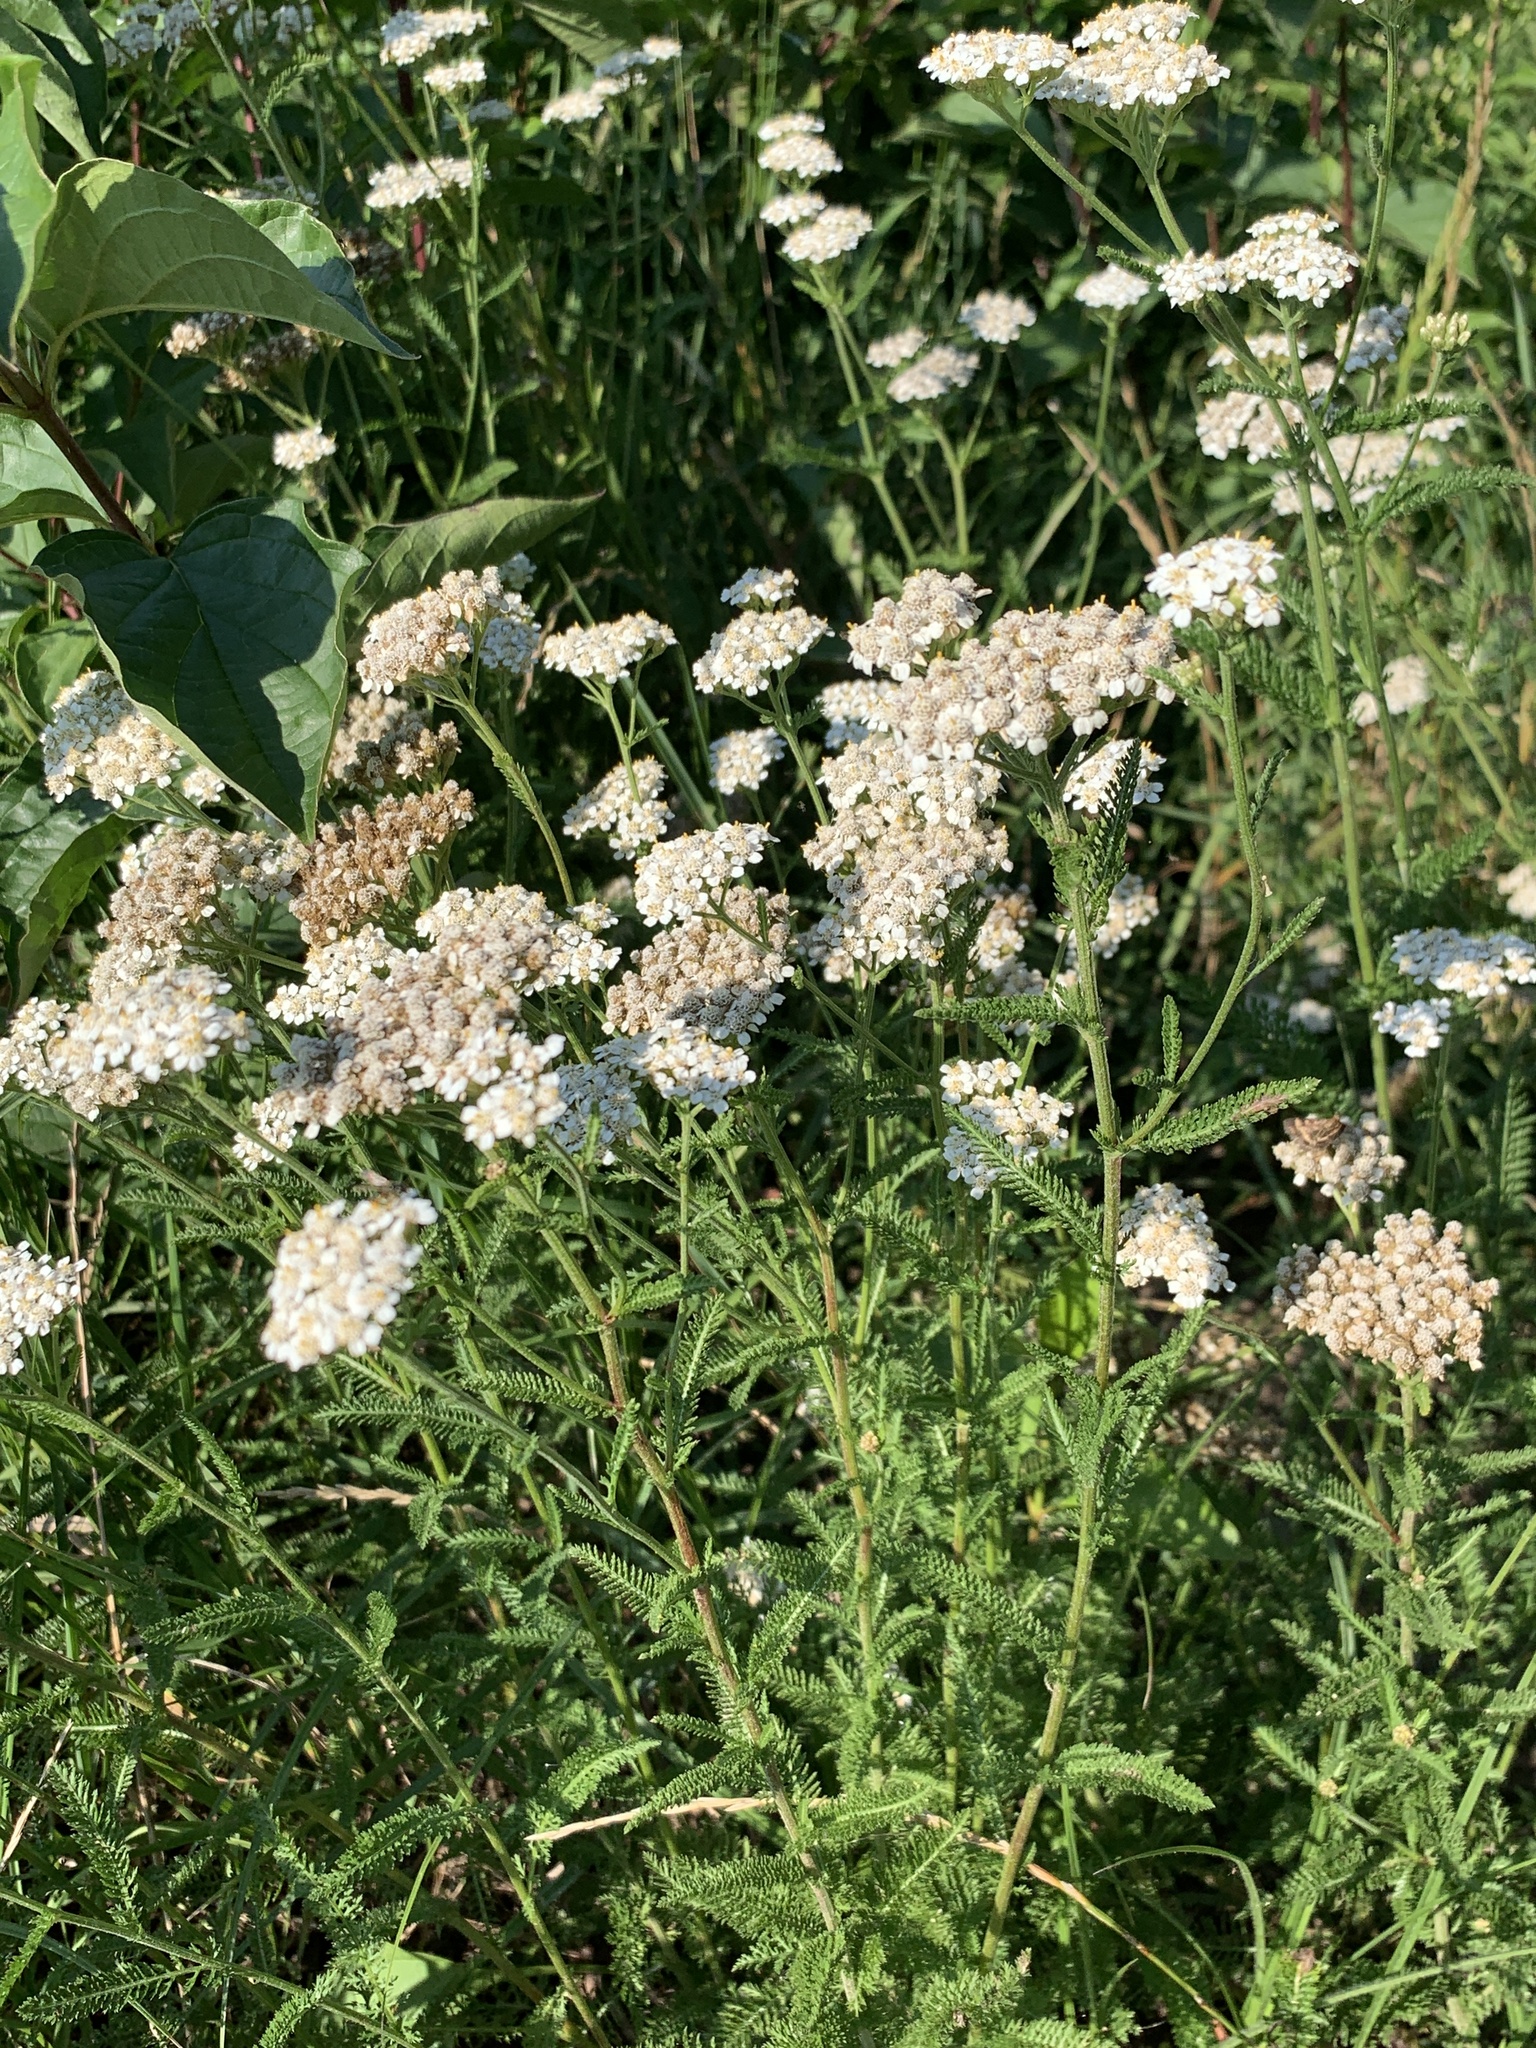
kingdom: Plantae
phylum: Tracheophyta
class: Magnoliopsida
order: Asterales
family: Asteraceae
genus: Achillea
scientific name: Achillea millefolium
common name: Yarrow
